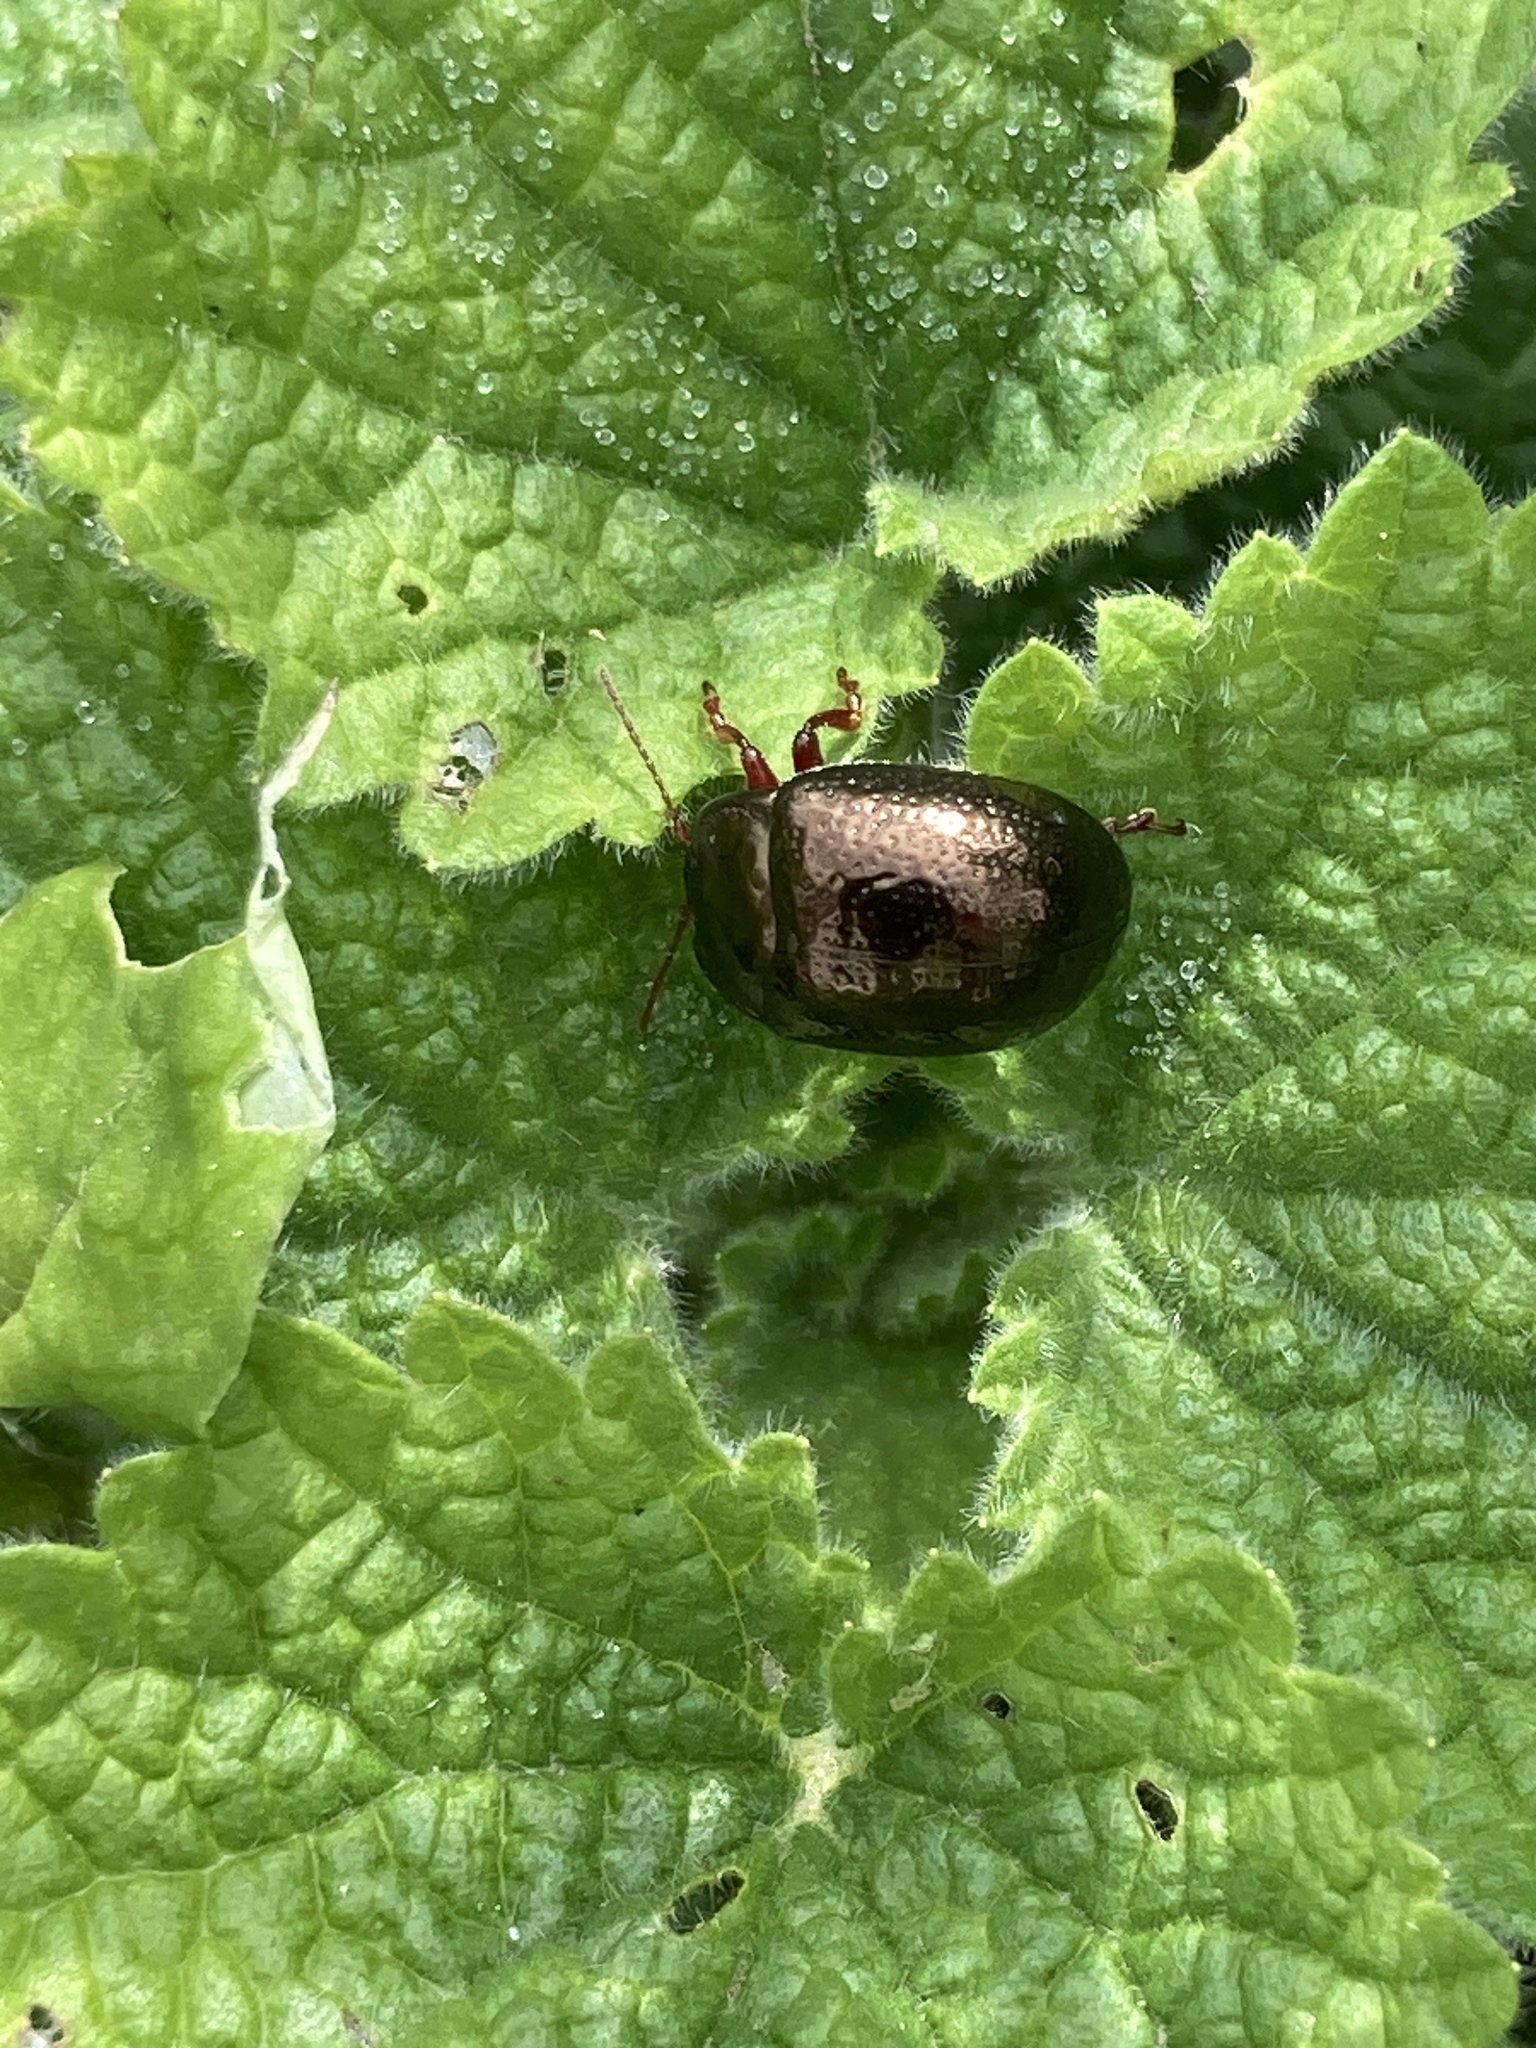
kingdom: Animalia
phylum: Arthropoda
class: Insecta
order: Coleoptera
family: Chrysomelidae
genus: Chrysolina
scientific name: Chrysolina bankii
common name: Leaf beetle
